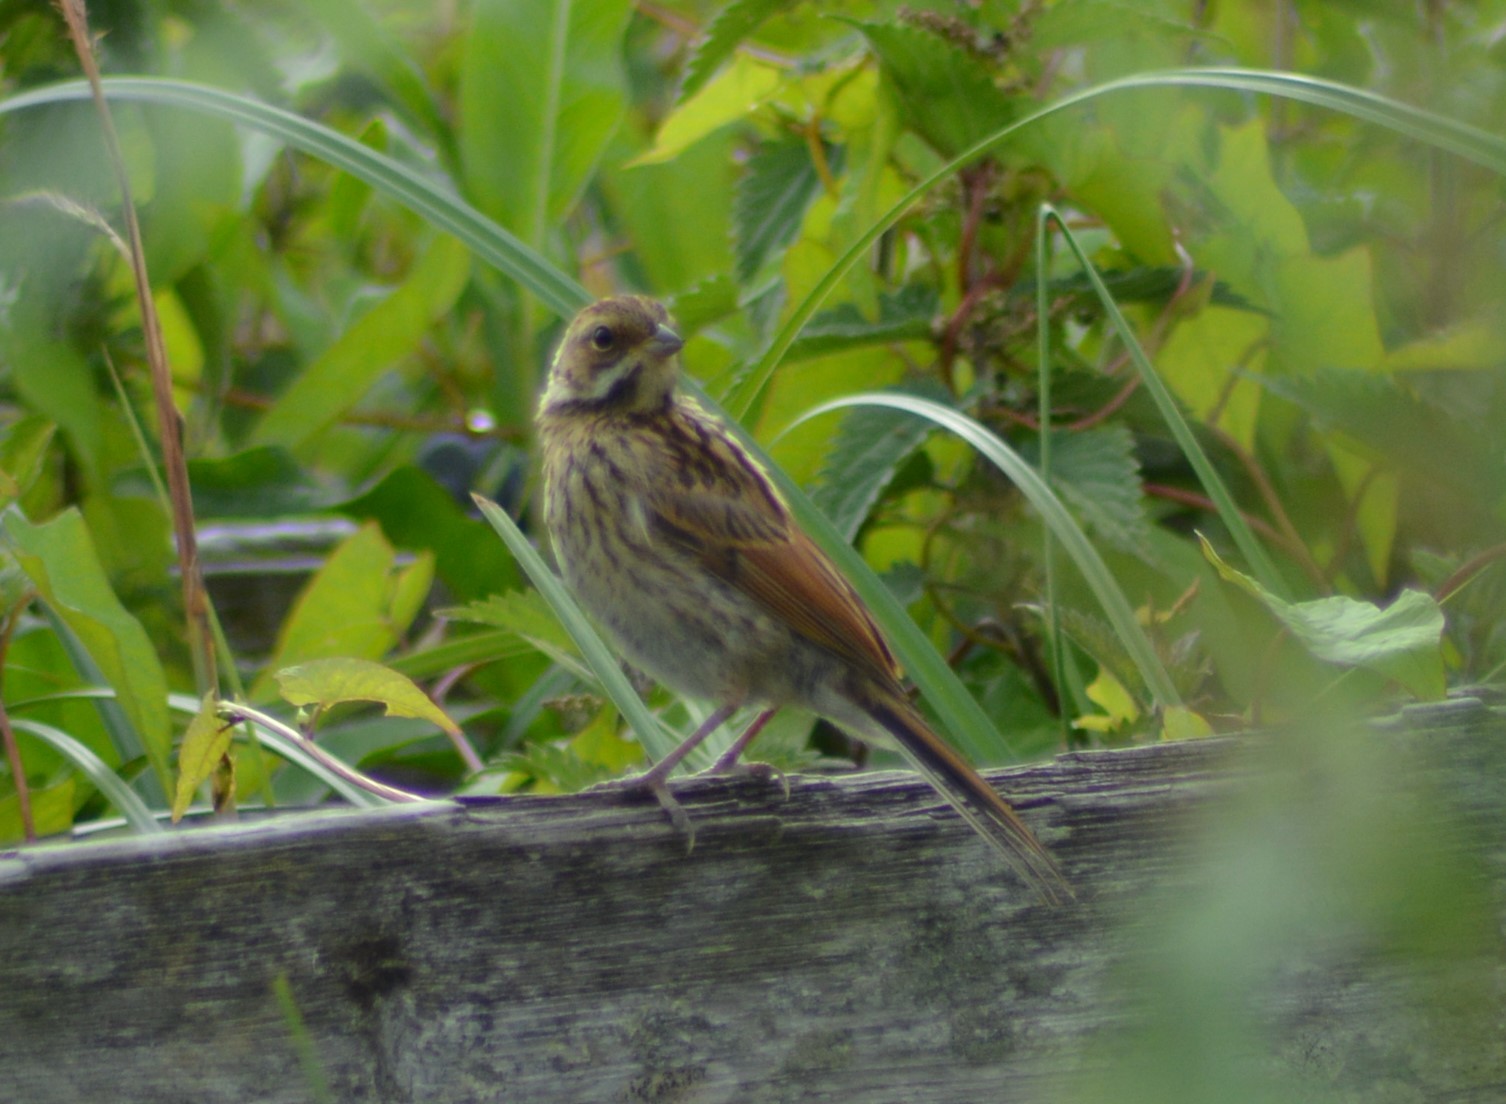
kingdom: Animalia
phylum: Chordata
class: Aves
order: Passeriformes
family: Emberizidae
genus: Emberiza
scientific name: Emberiza schoeniclus
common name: Reed bunting
